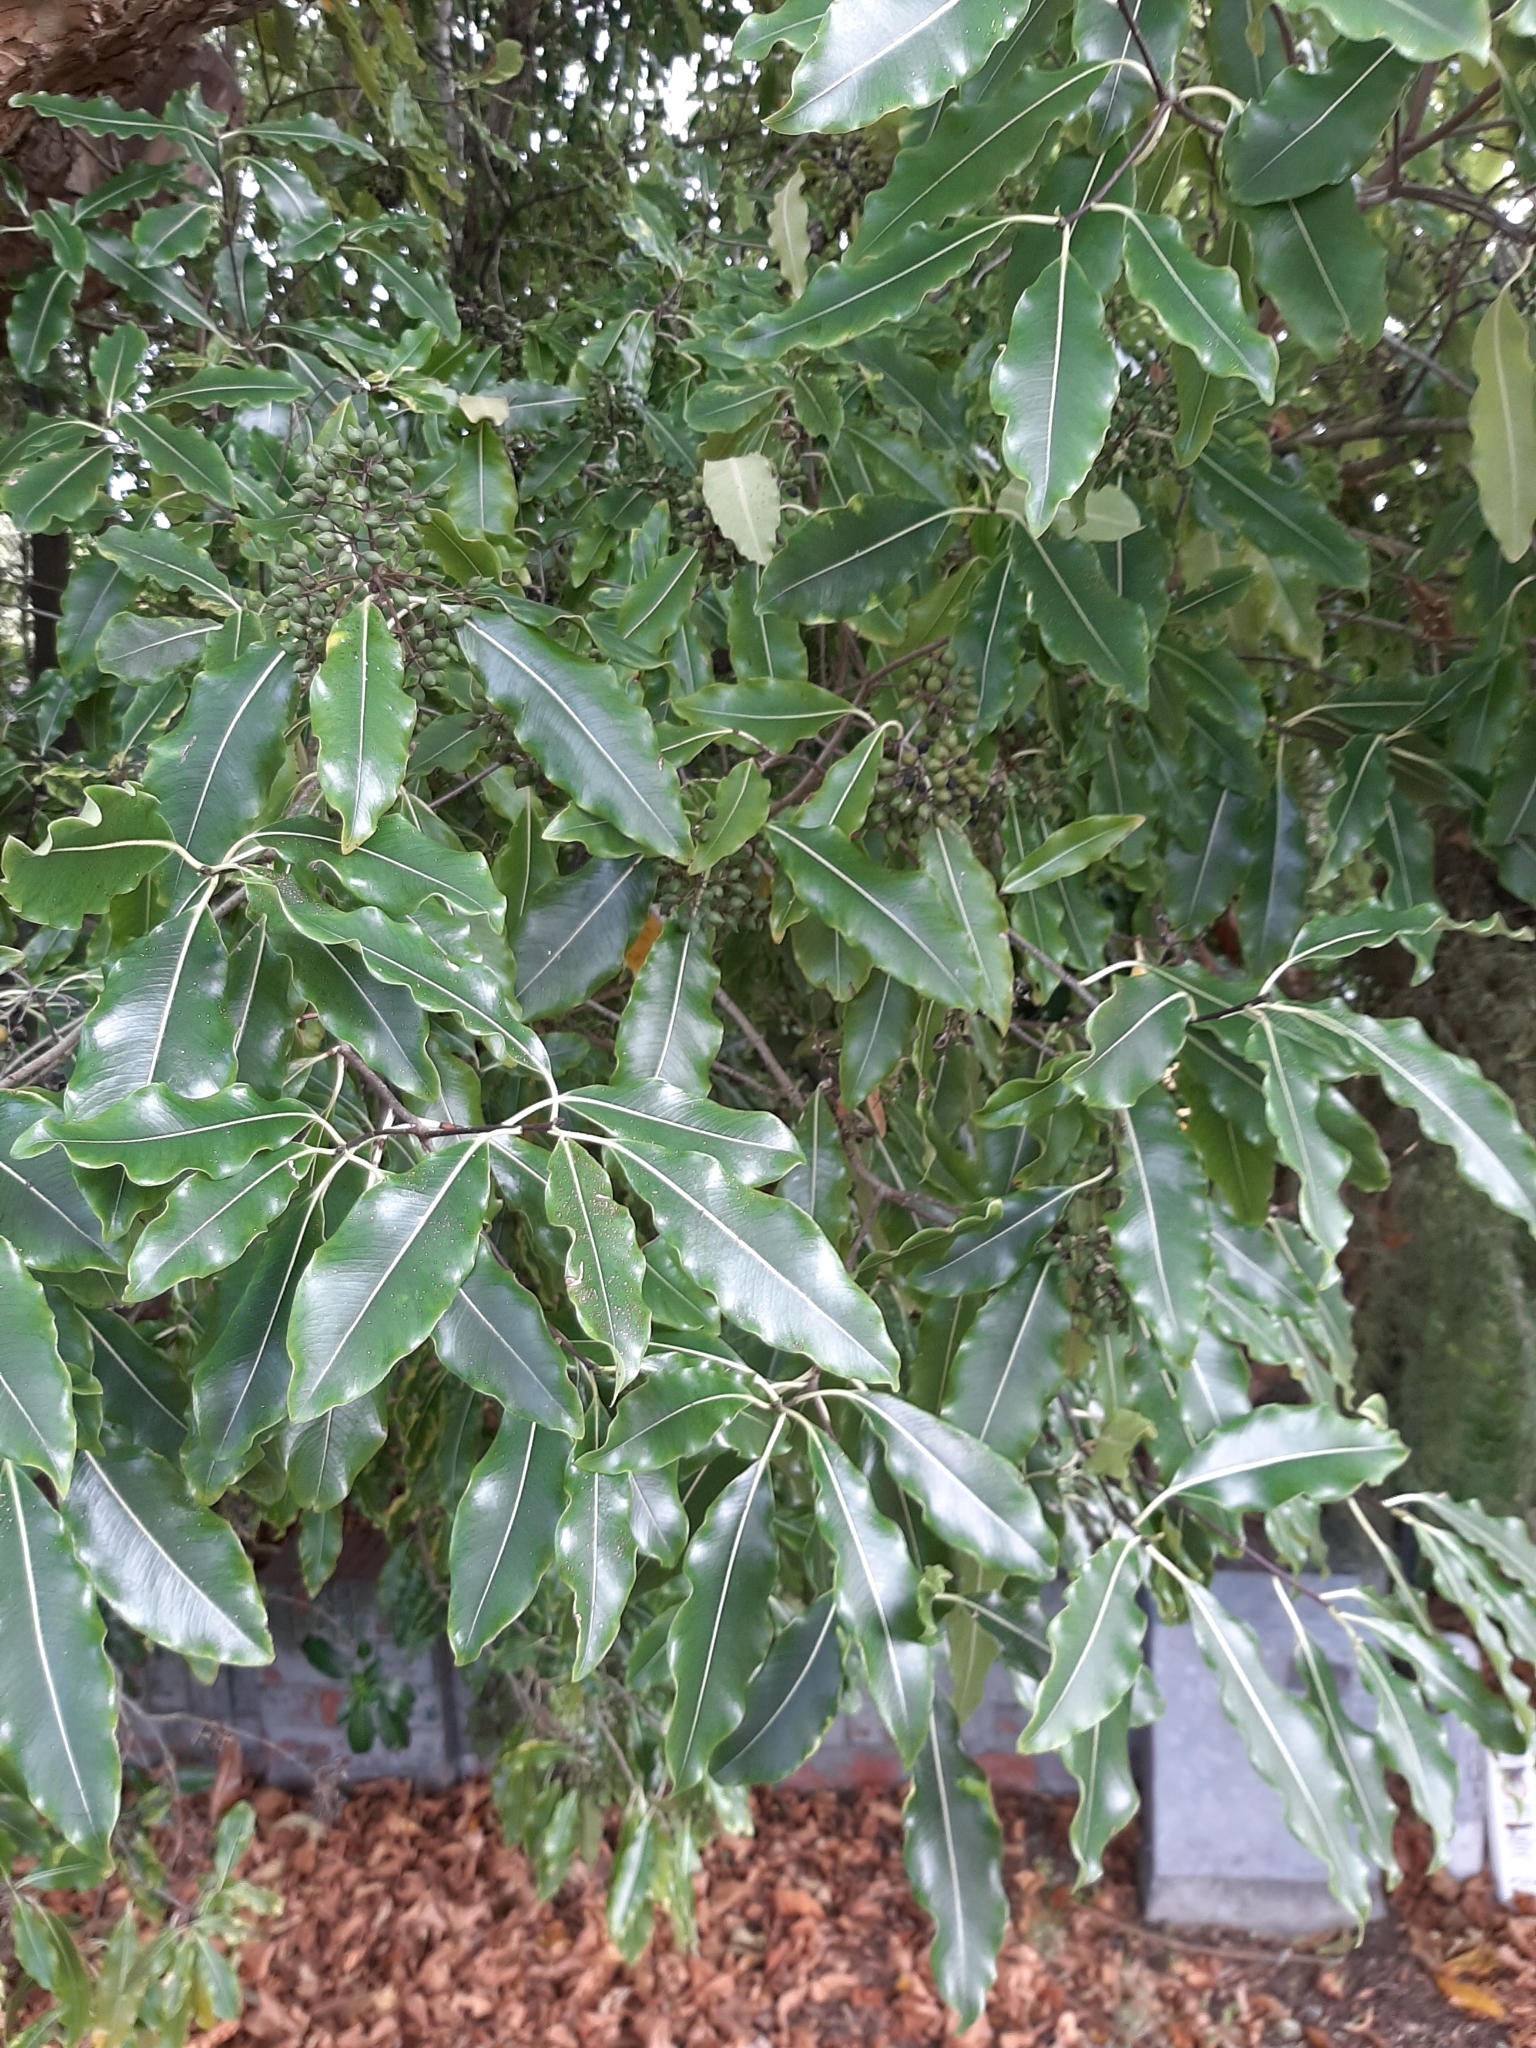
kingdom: Plantae
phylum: Tracheophyta
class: Magnoliopsida
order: Apiales
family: Pittosporaceae
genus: Pittosporum
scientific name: Pittosporum eugenioides
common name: Lemonwood
